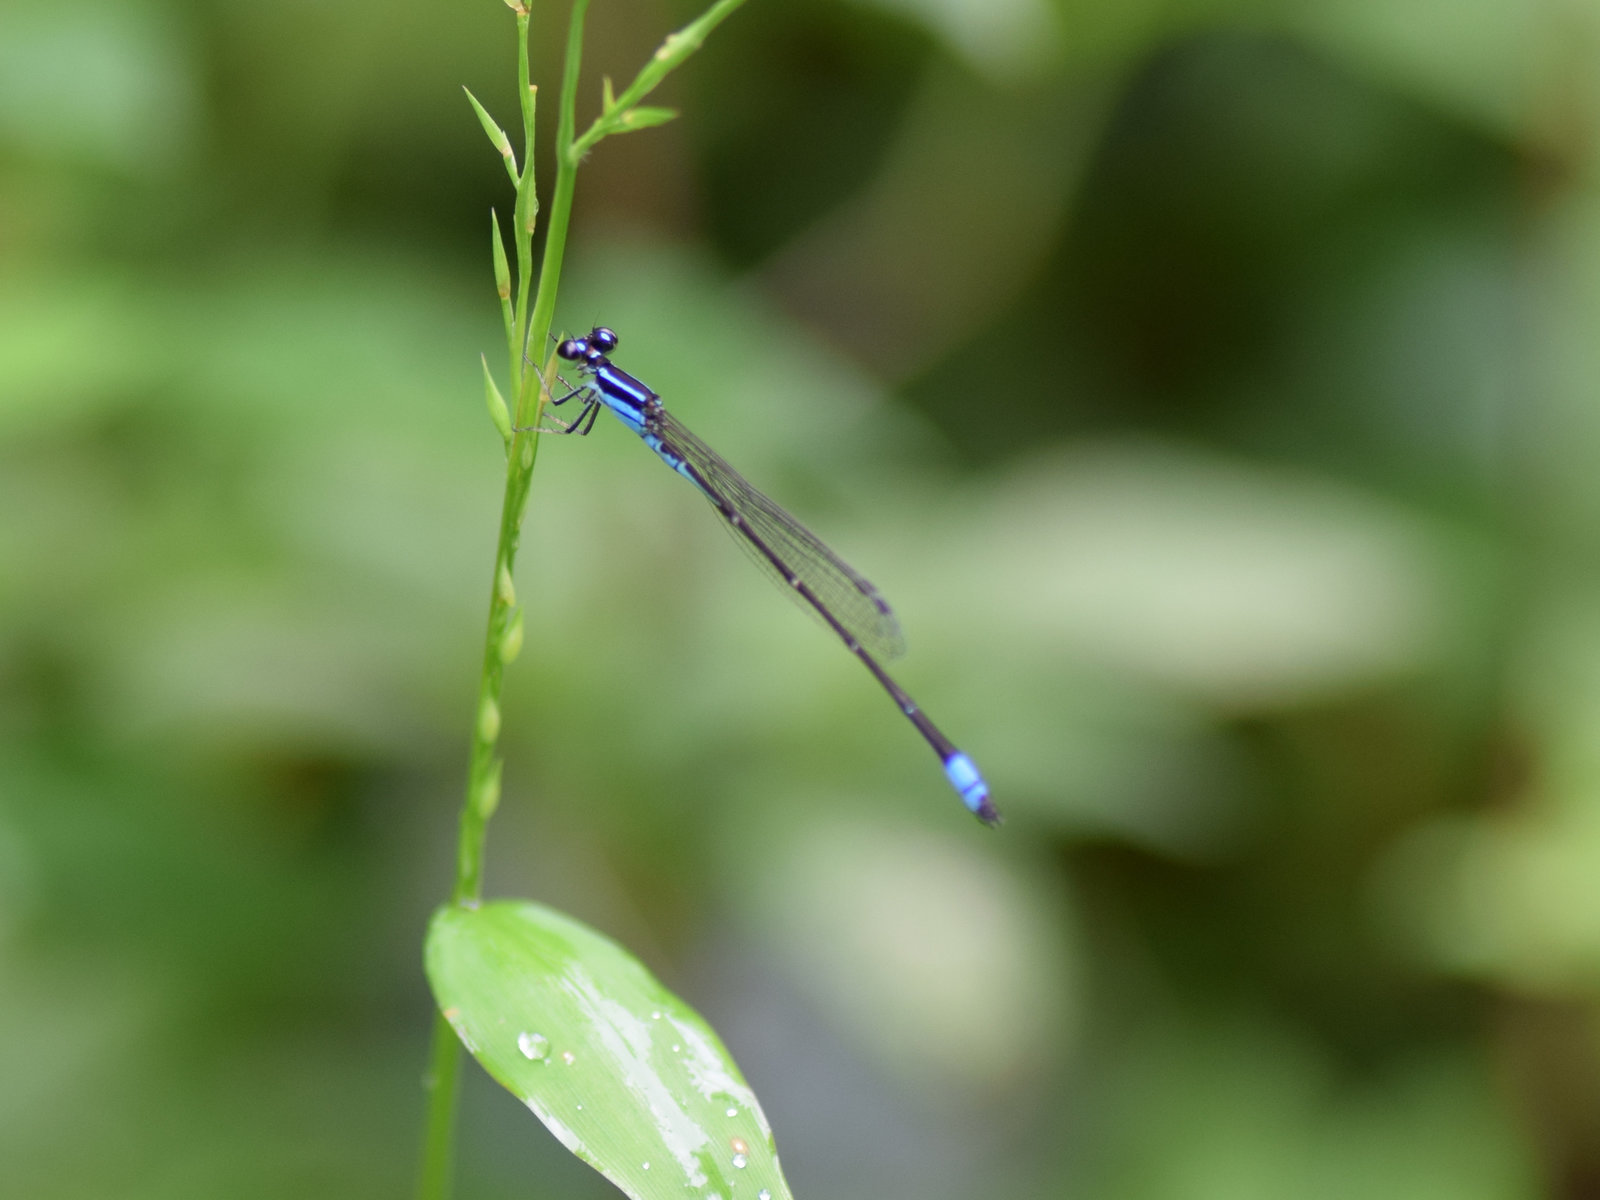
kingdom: Animalia
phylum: Arthropoda
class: Insecta
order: Odonata
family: Coenagrionidae
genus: Argiocnemis
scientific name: Argiocnemis rubescens
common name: Red-tipped shadefly
